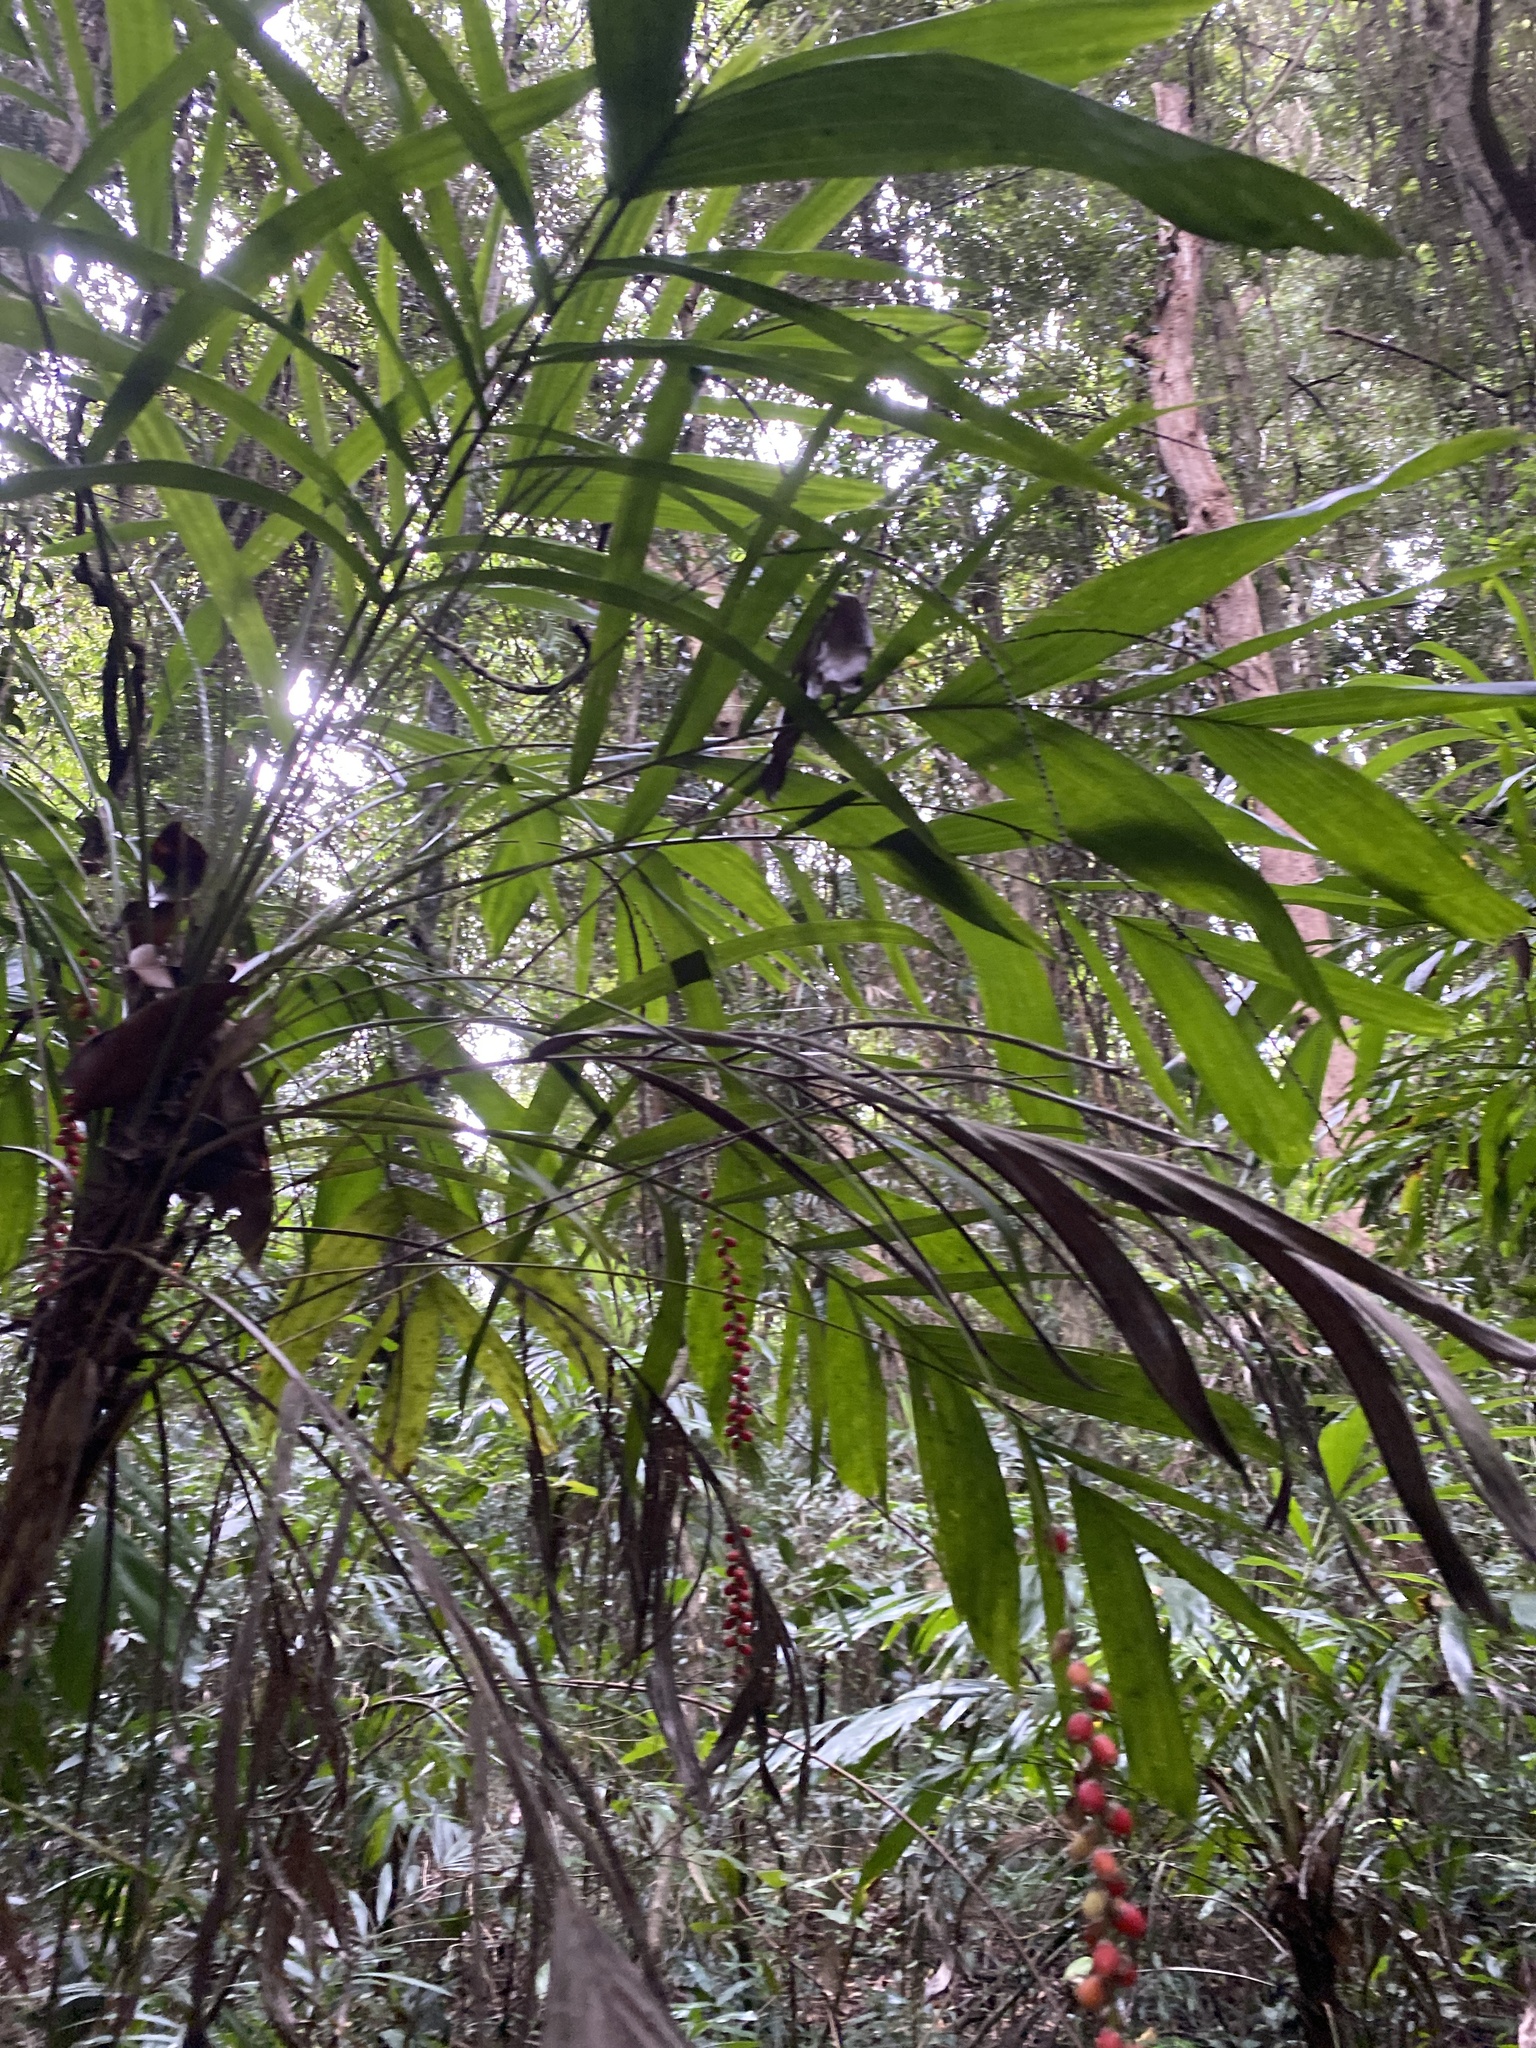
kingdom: Plantae
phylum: Tracheophyta
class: Liliopsida
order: Arecales
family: Arecaceae
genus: Linospadix
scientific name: Linospadix monostachyus
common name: Walking-stick palm
